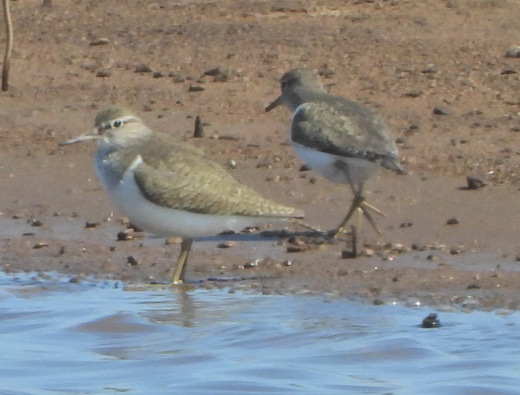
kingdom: Animalia
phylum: Chordata
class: Aves
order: Charadriiformes
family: Scolopacidae
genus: Actitis
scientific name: Actitis hypoleucos
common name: Common sandpiper
